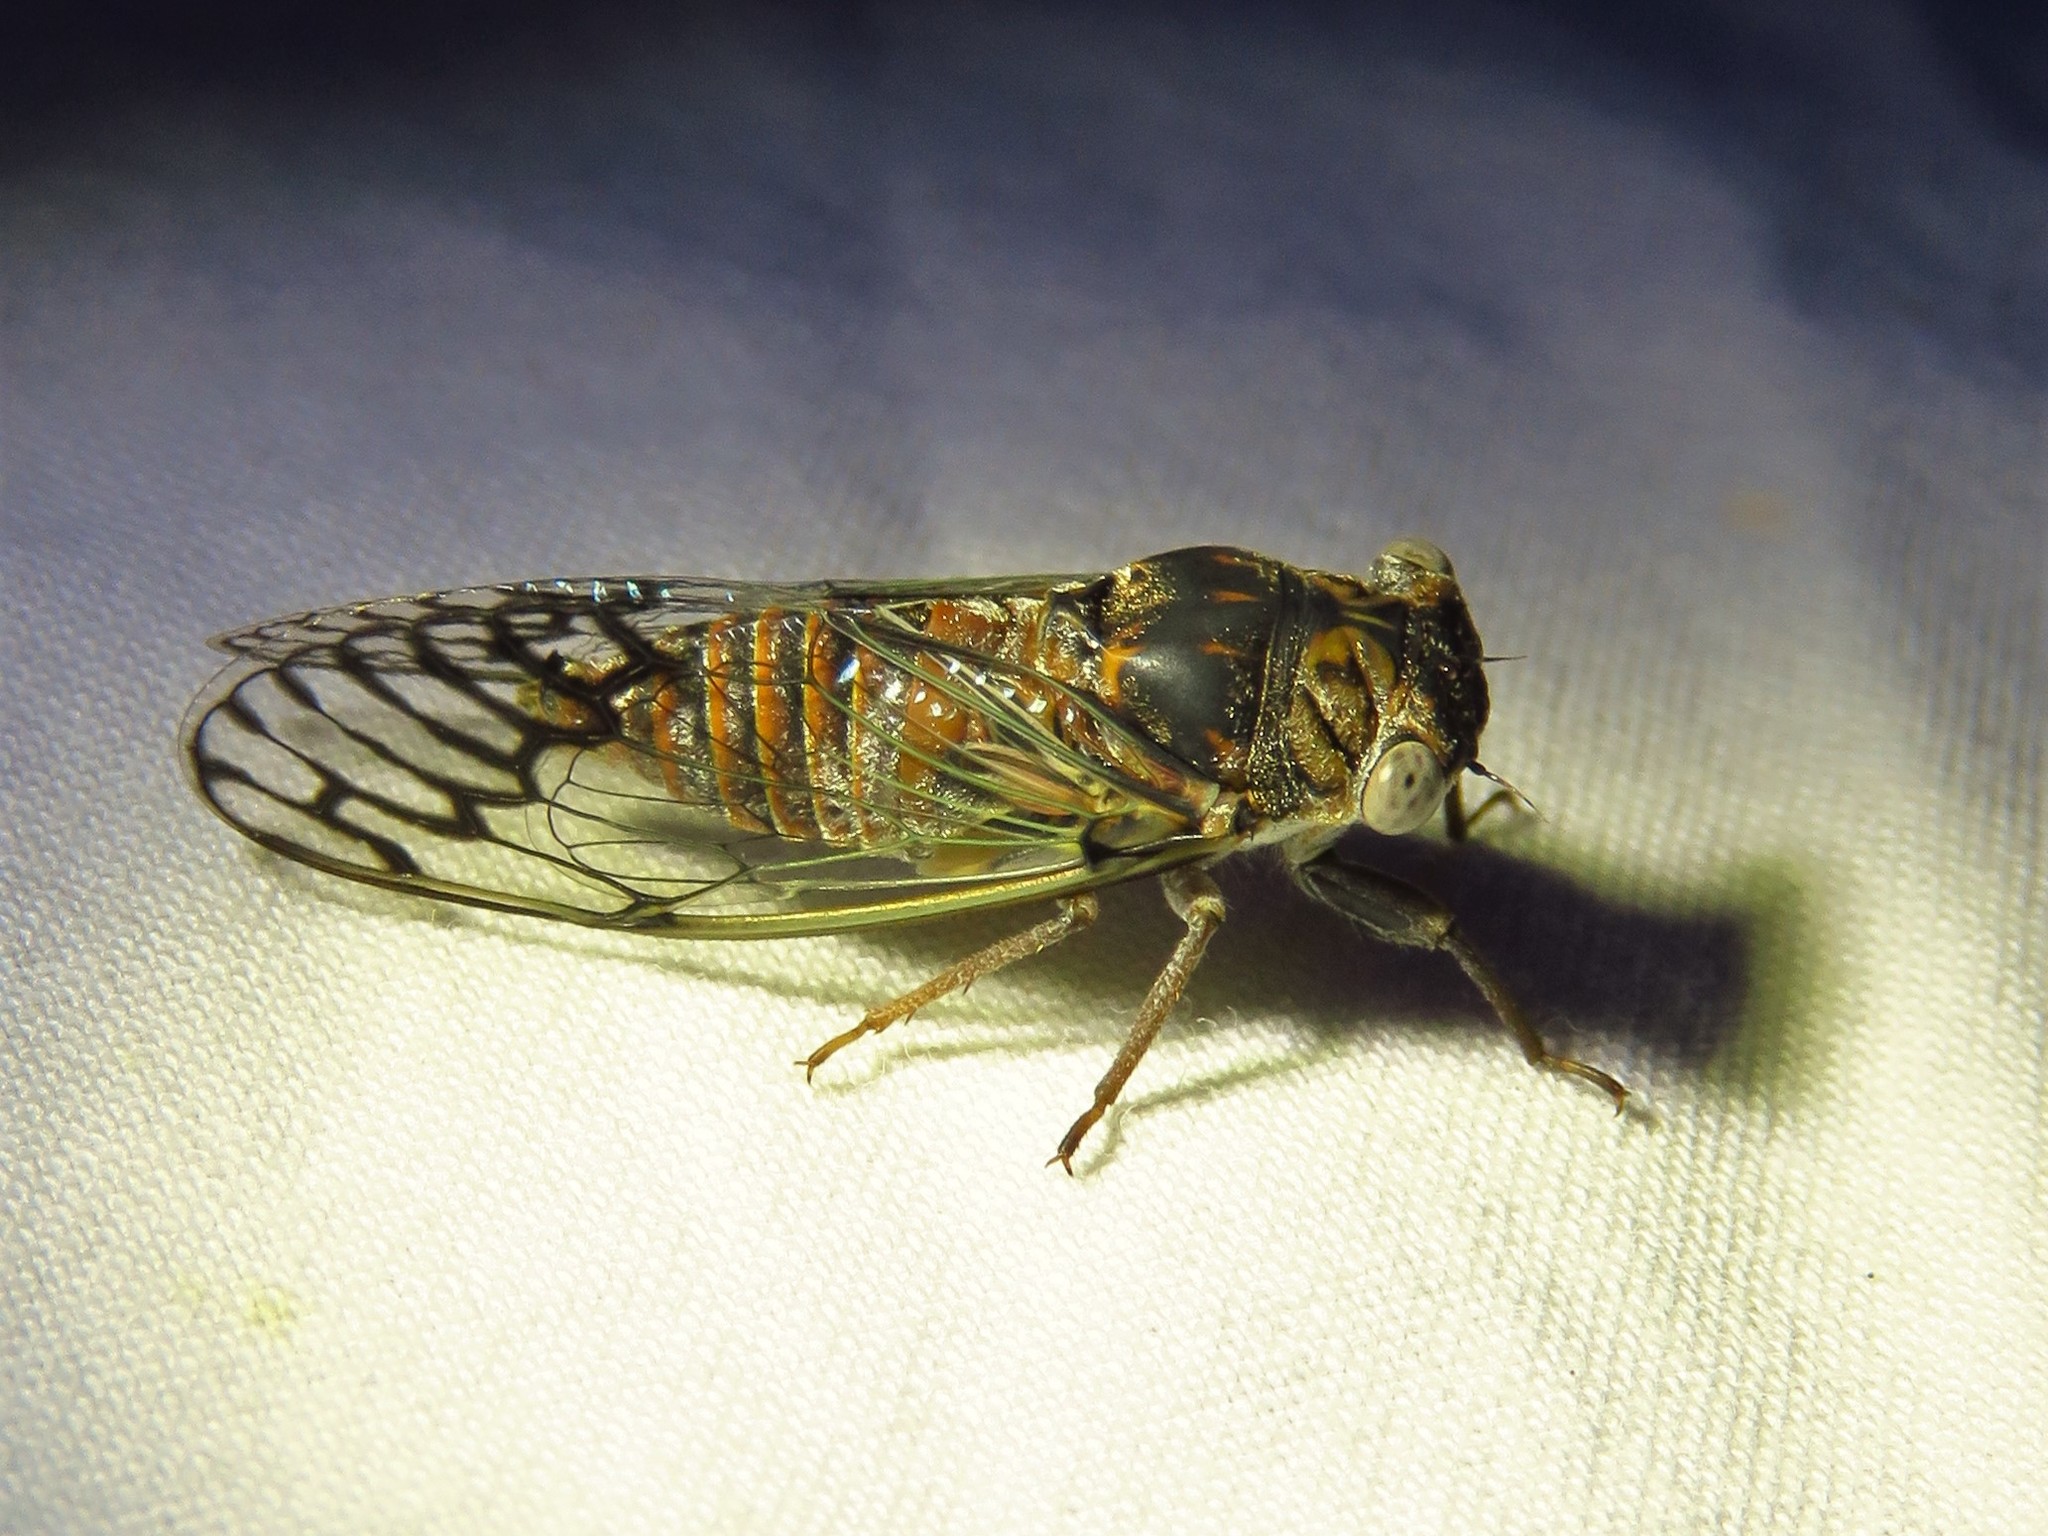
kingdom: Animalia
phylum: Arthropoda
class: Insecta
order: Hemiptera
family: Cicadidae
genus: Pacarina
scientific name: Pacarina puella
